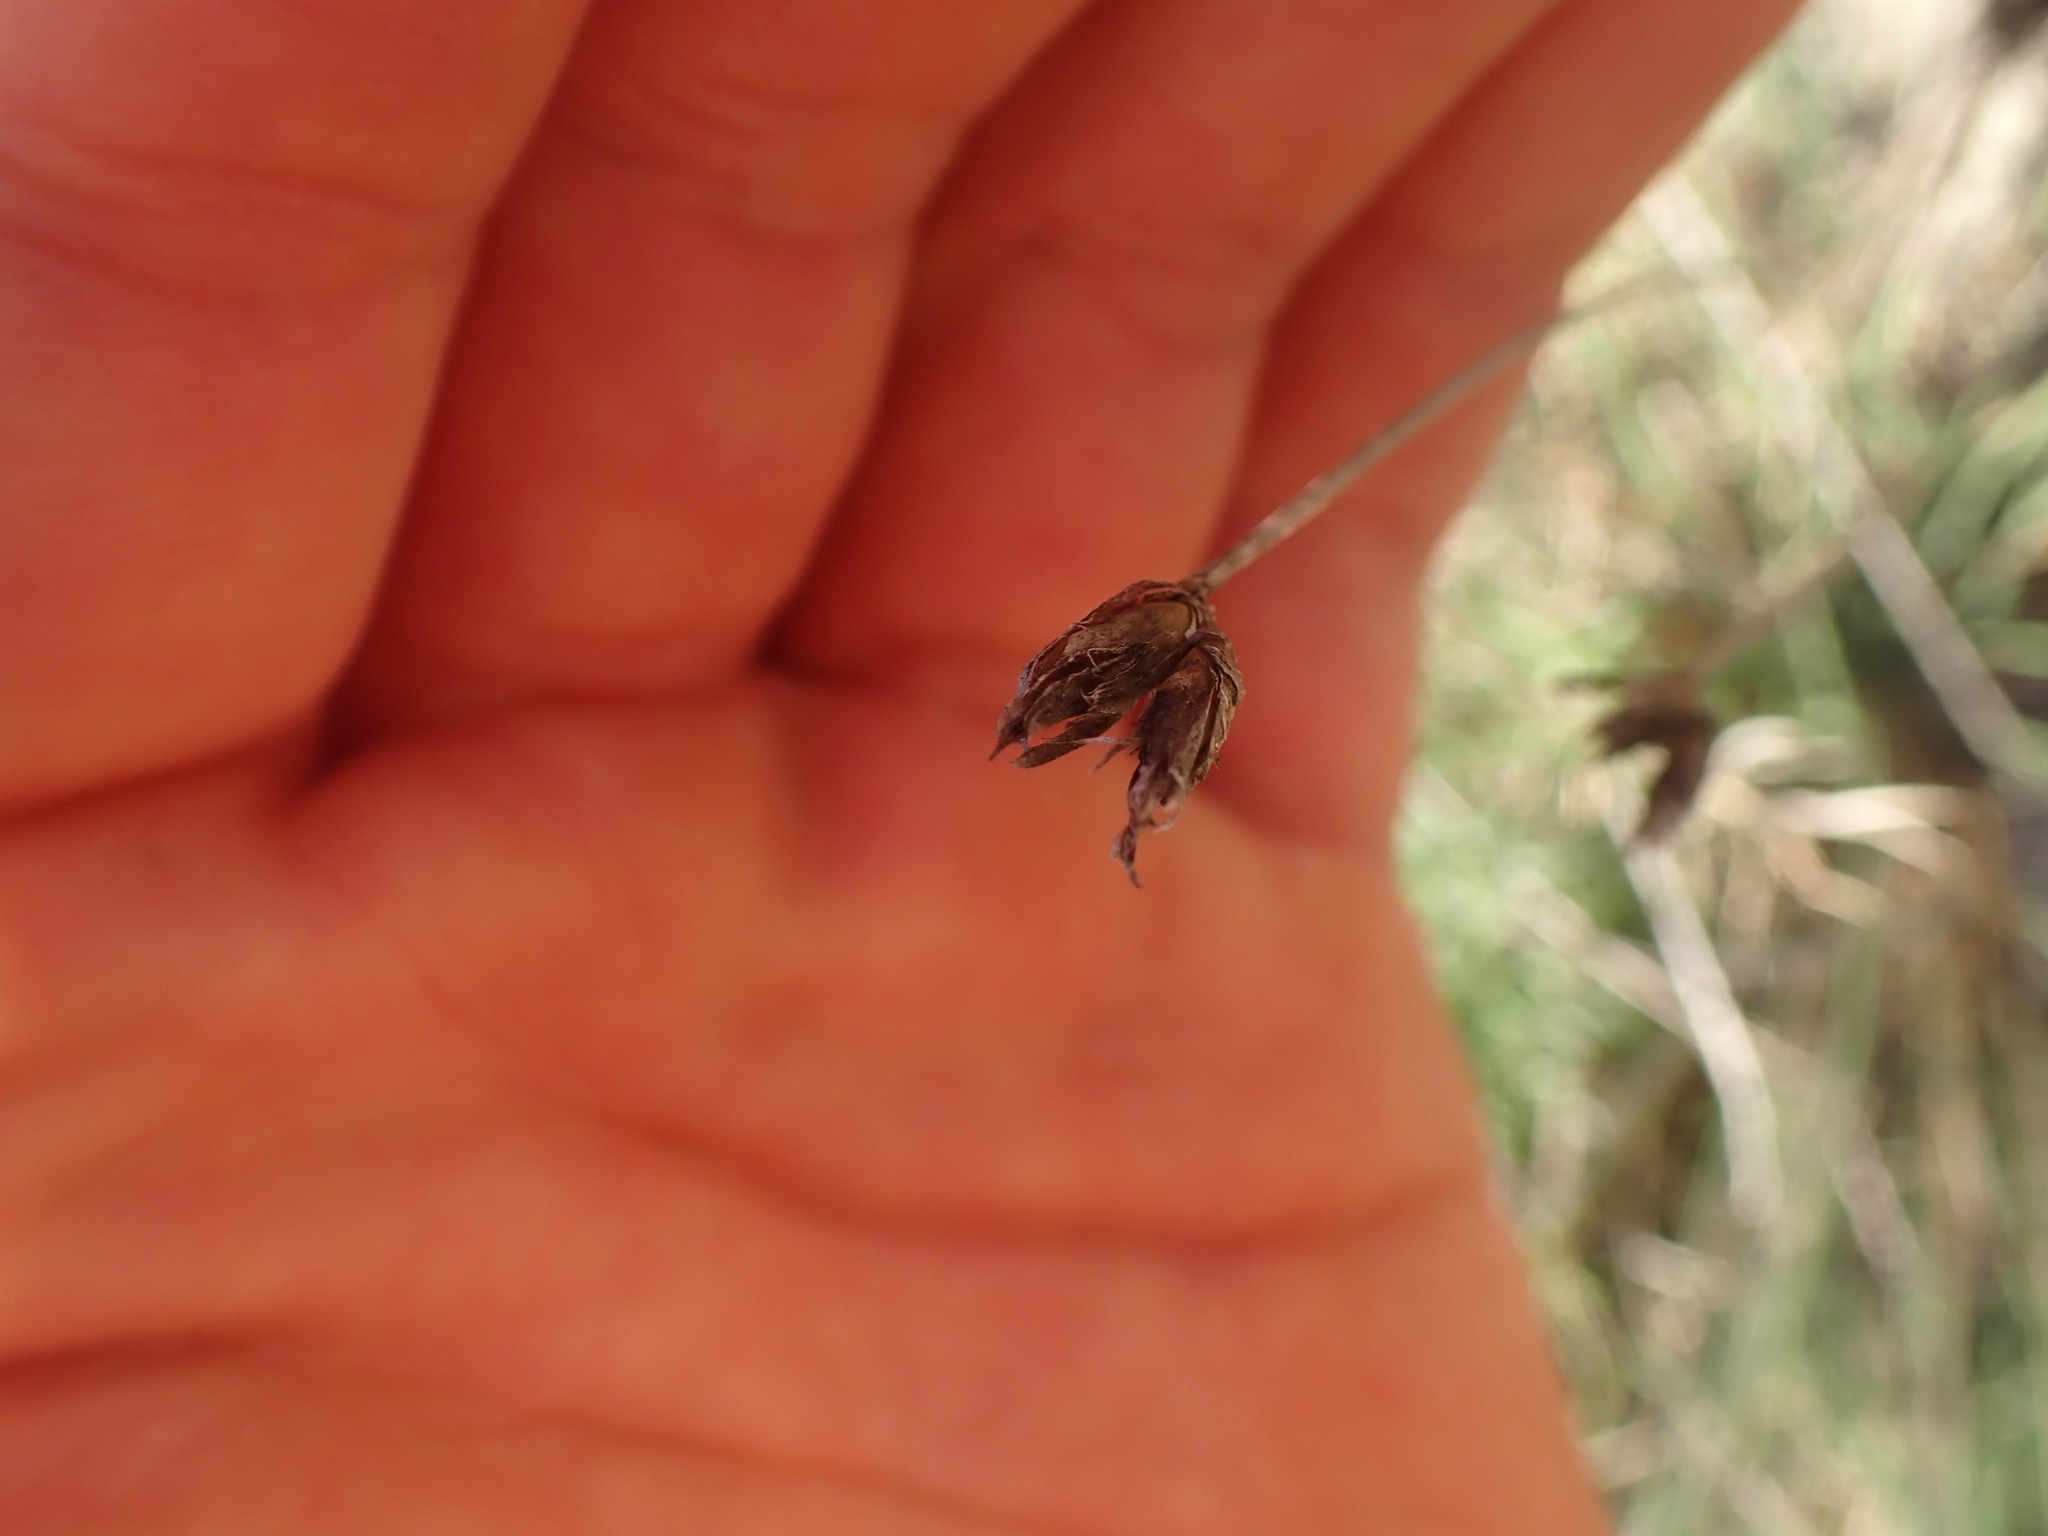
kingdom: Plantae
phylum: Tracheophyta
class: Liliopsida
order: Asparagales
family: Asparagaceae
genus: Aphyllanthes
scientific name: Aphyllanthes monspeliensis
